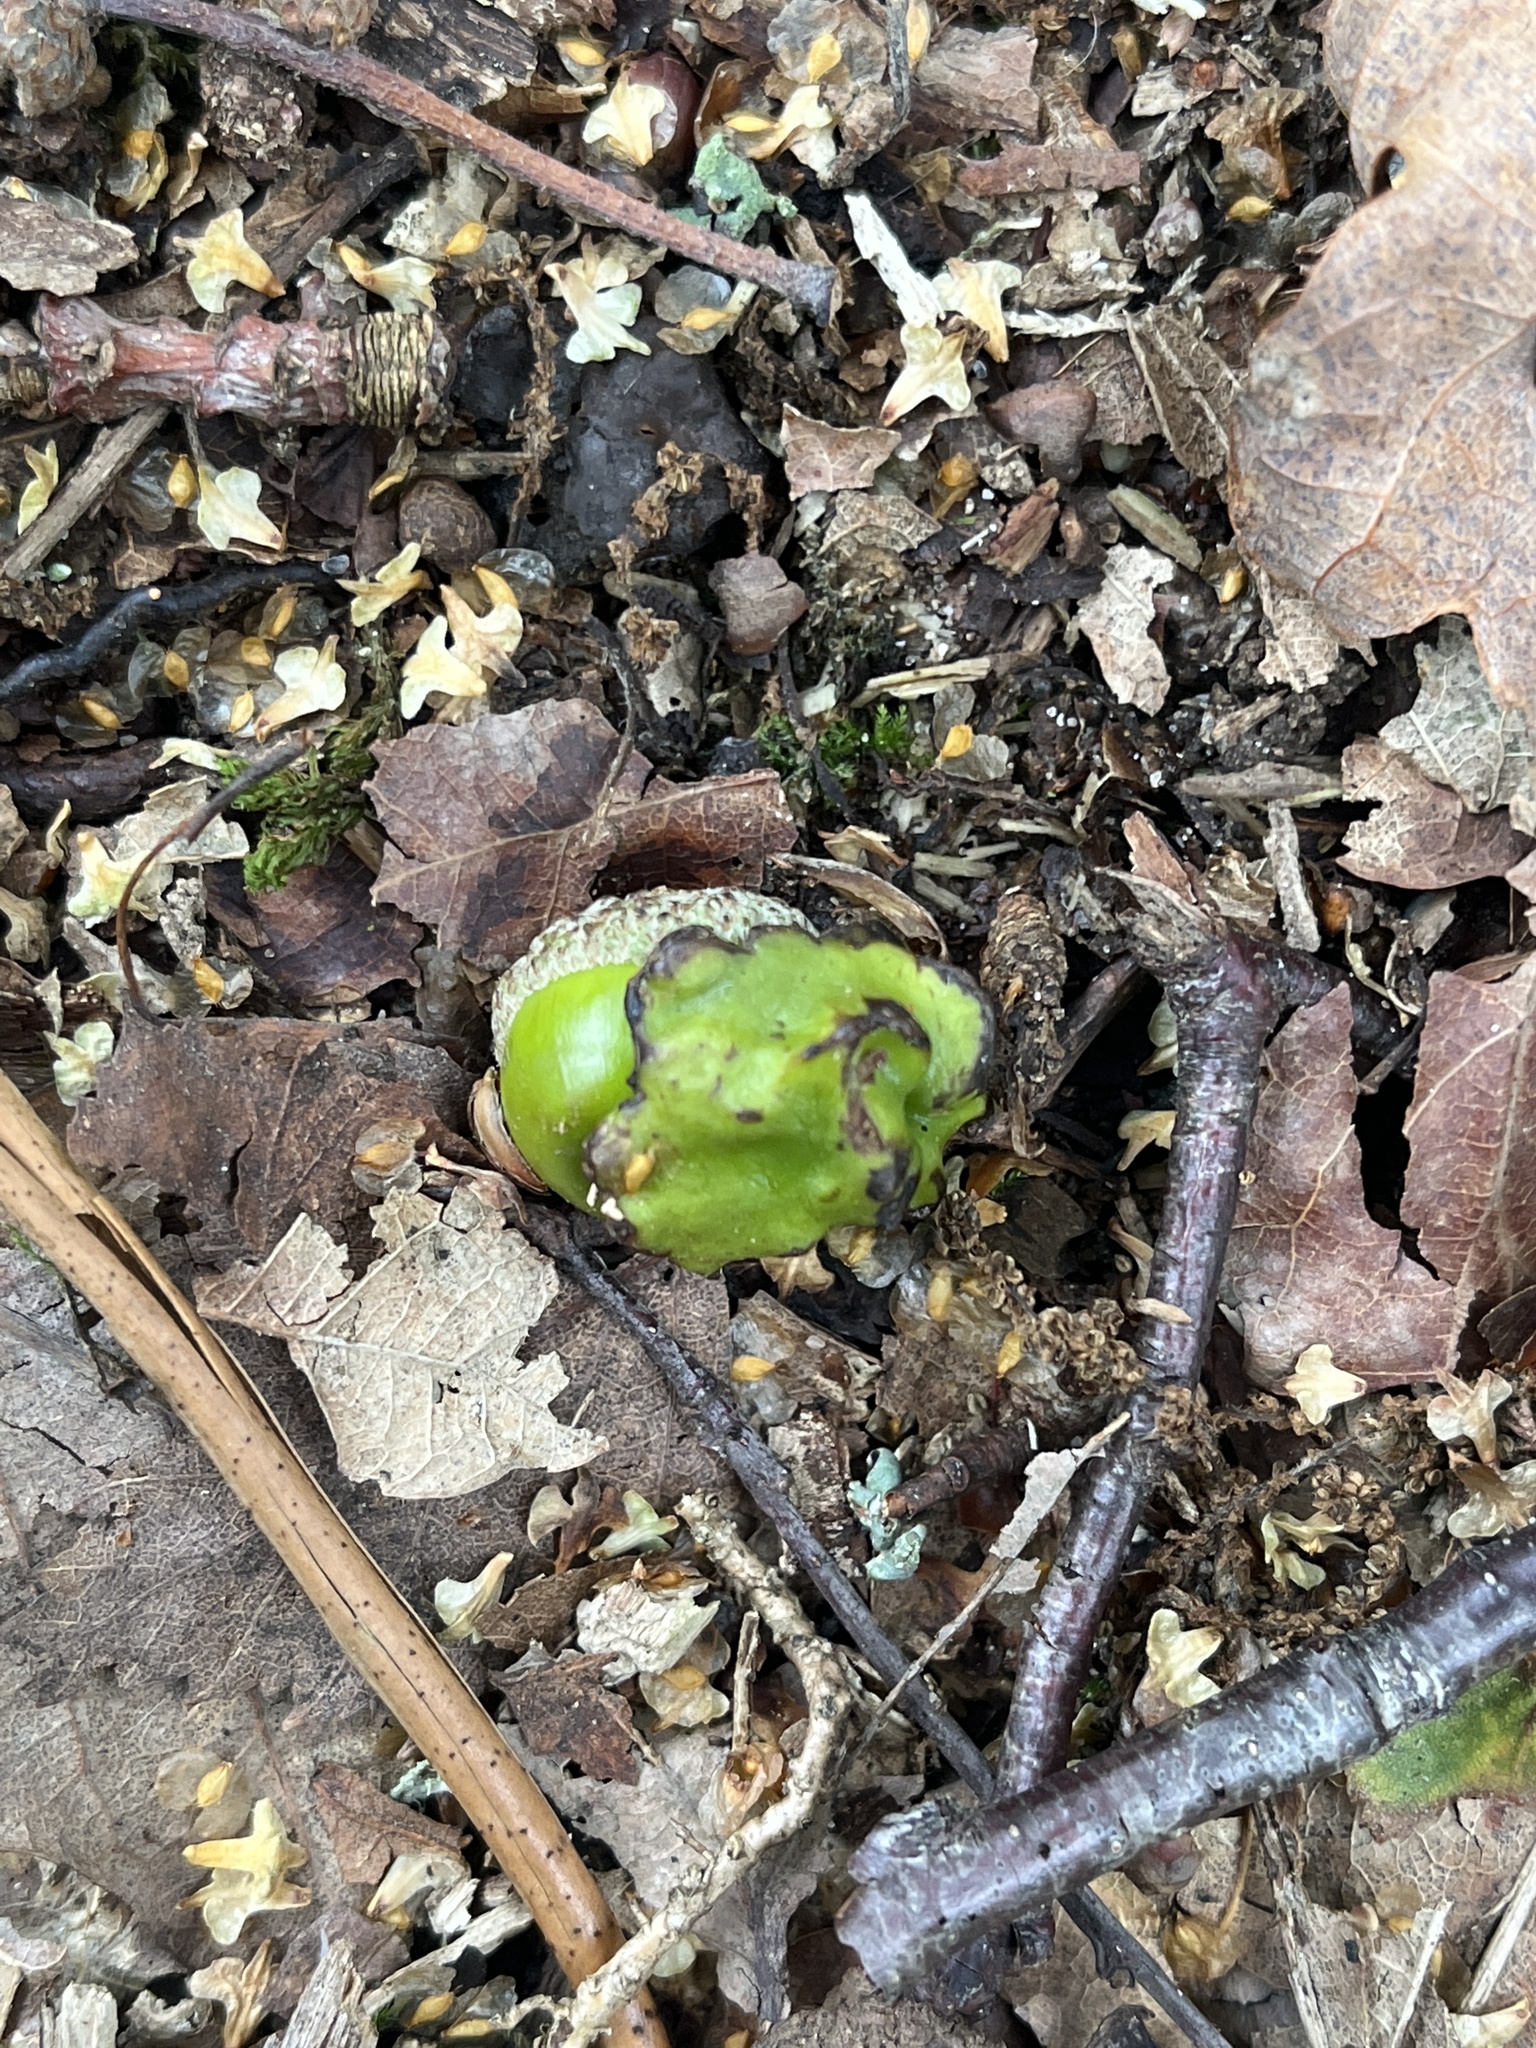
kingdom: Animalia
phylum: Arthropoda
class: Insecta
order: Hymenoptera
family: Cynipidae
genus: Andricus
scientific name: Andricus quercuscalicis
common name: Knopper gall
